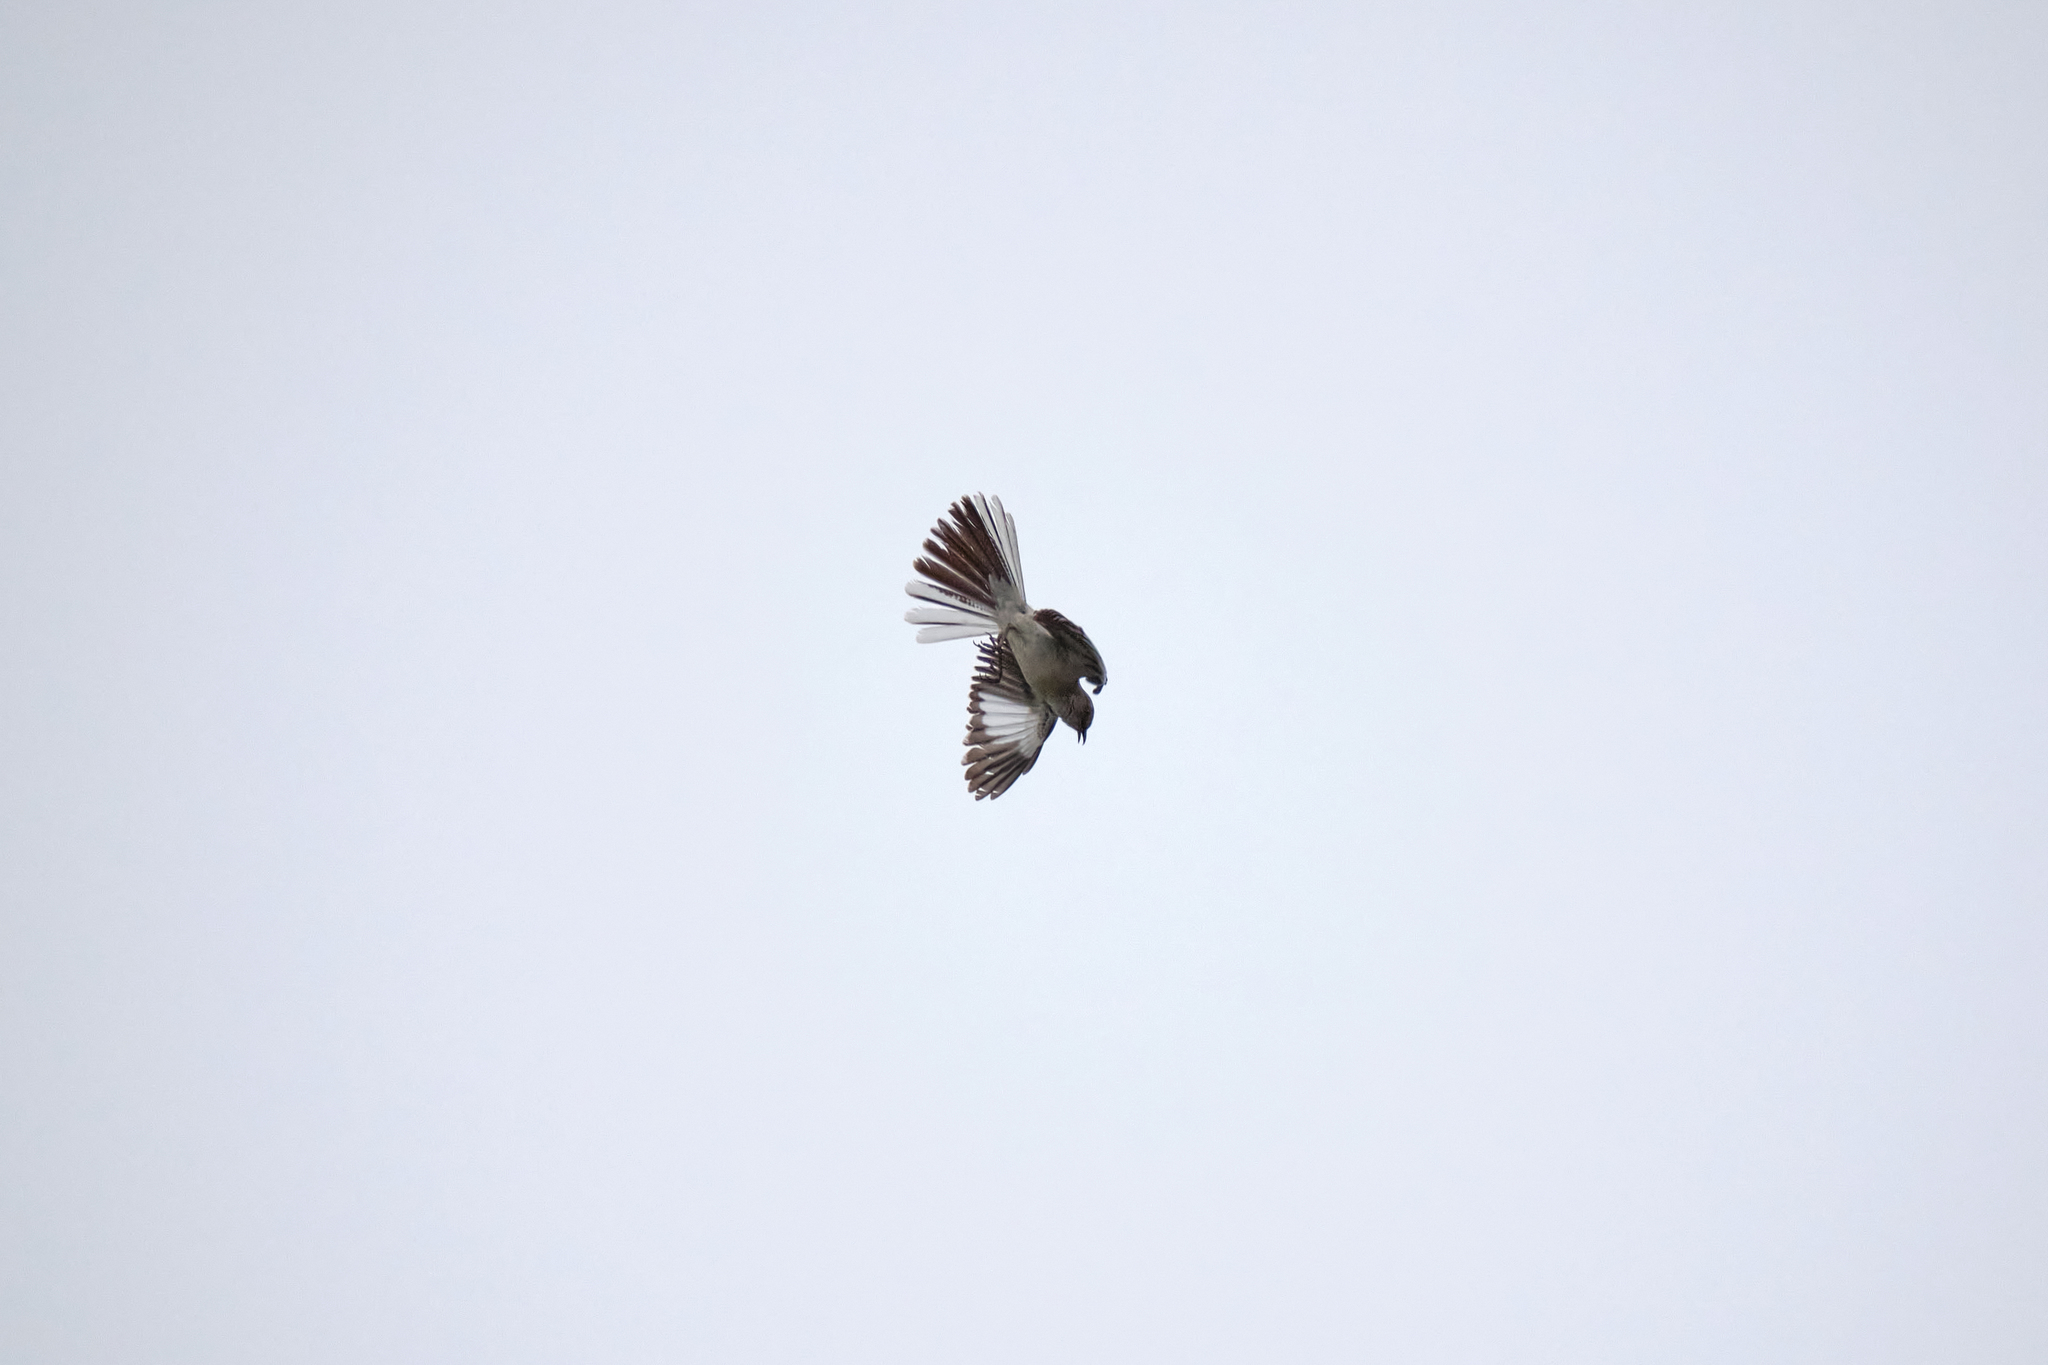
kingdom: Animalia
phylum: Chordata
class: Aves
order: Passeriformes
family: Mimidae
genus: Mimus
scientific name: Mimus polyglottos
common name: Northern mockingbird
